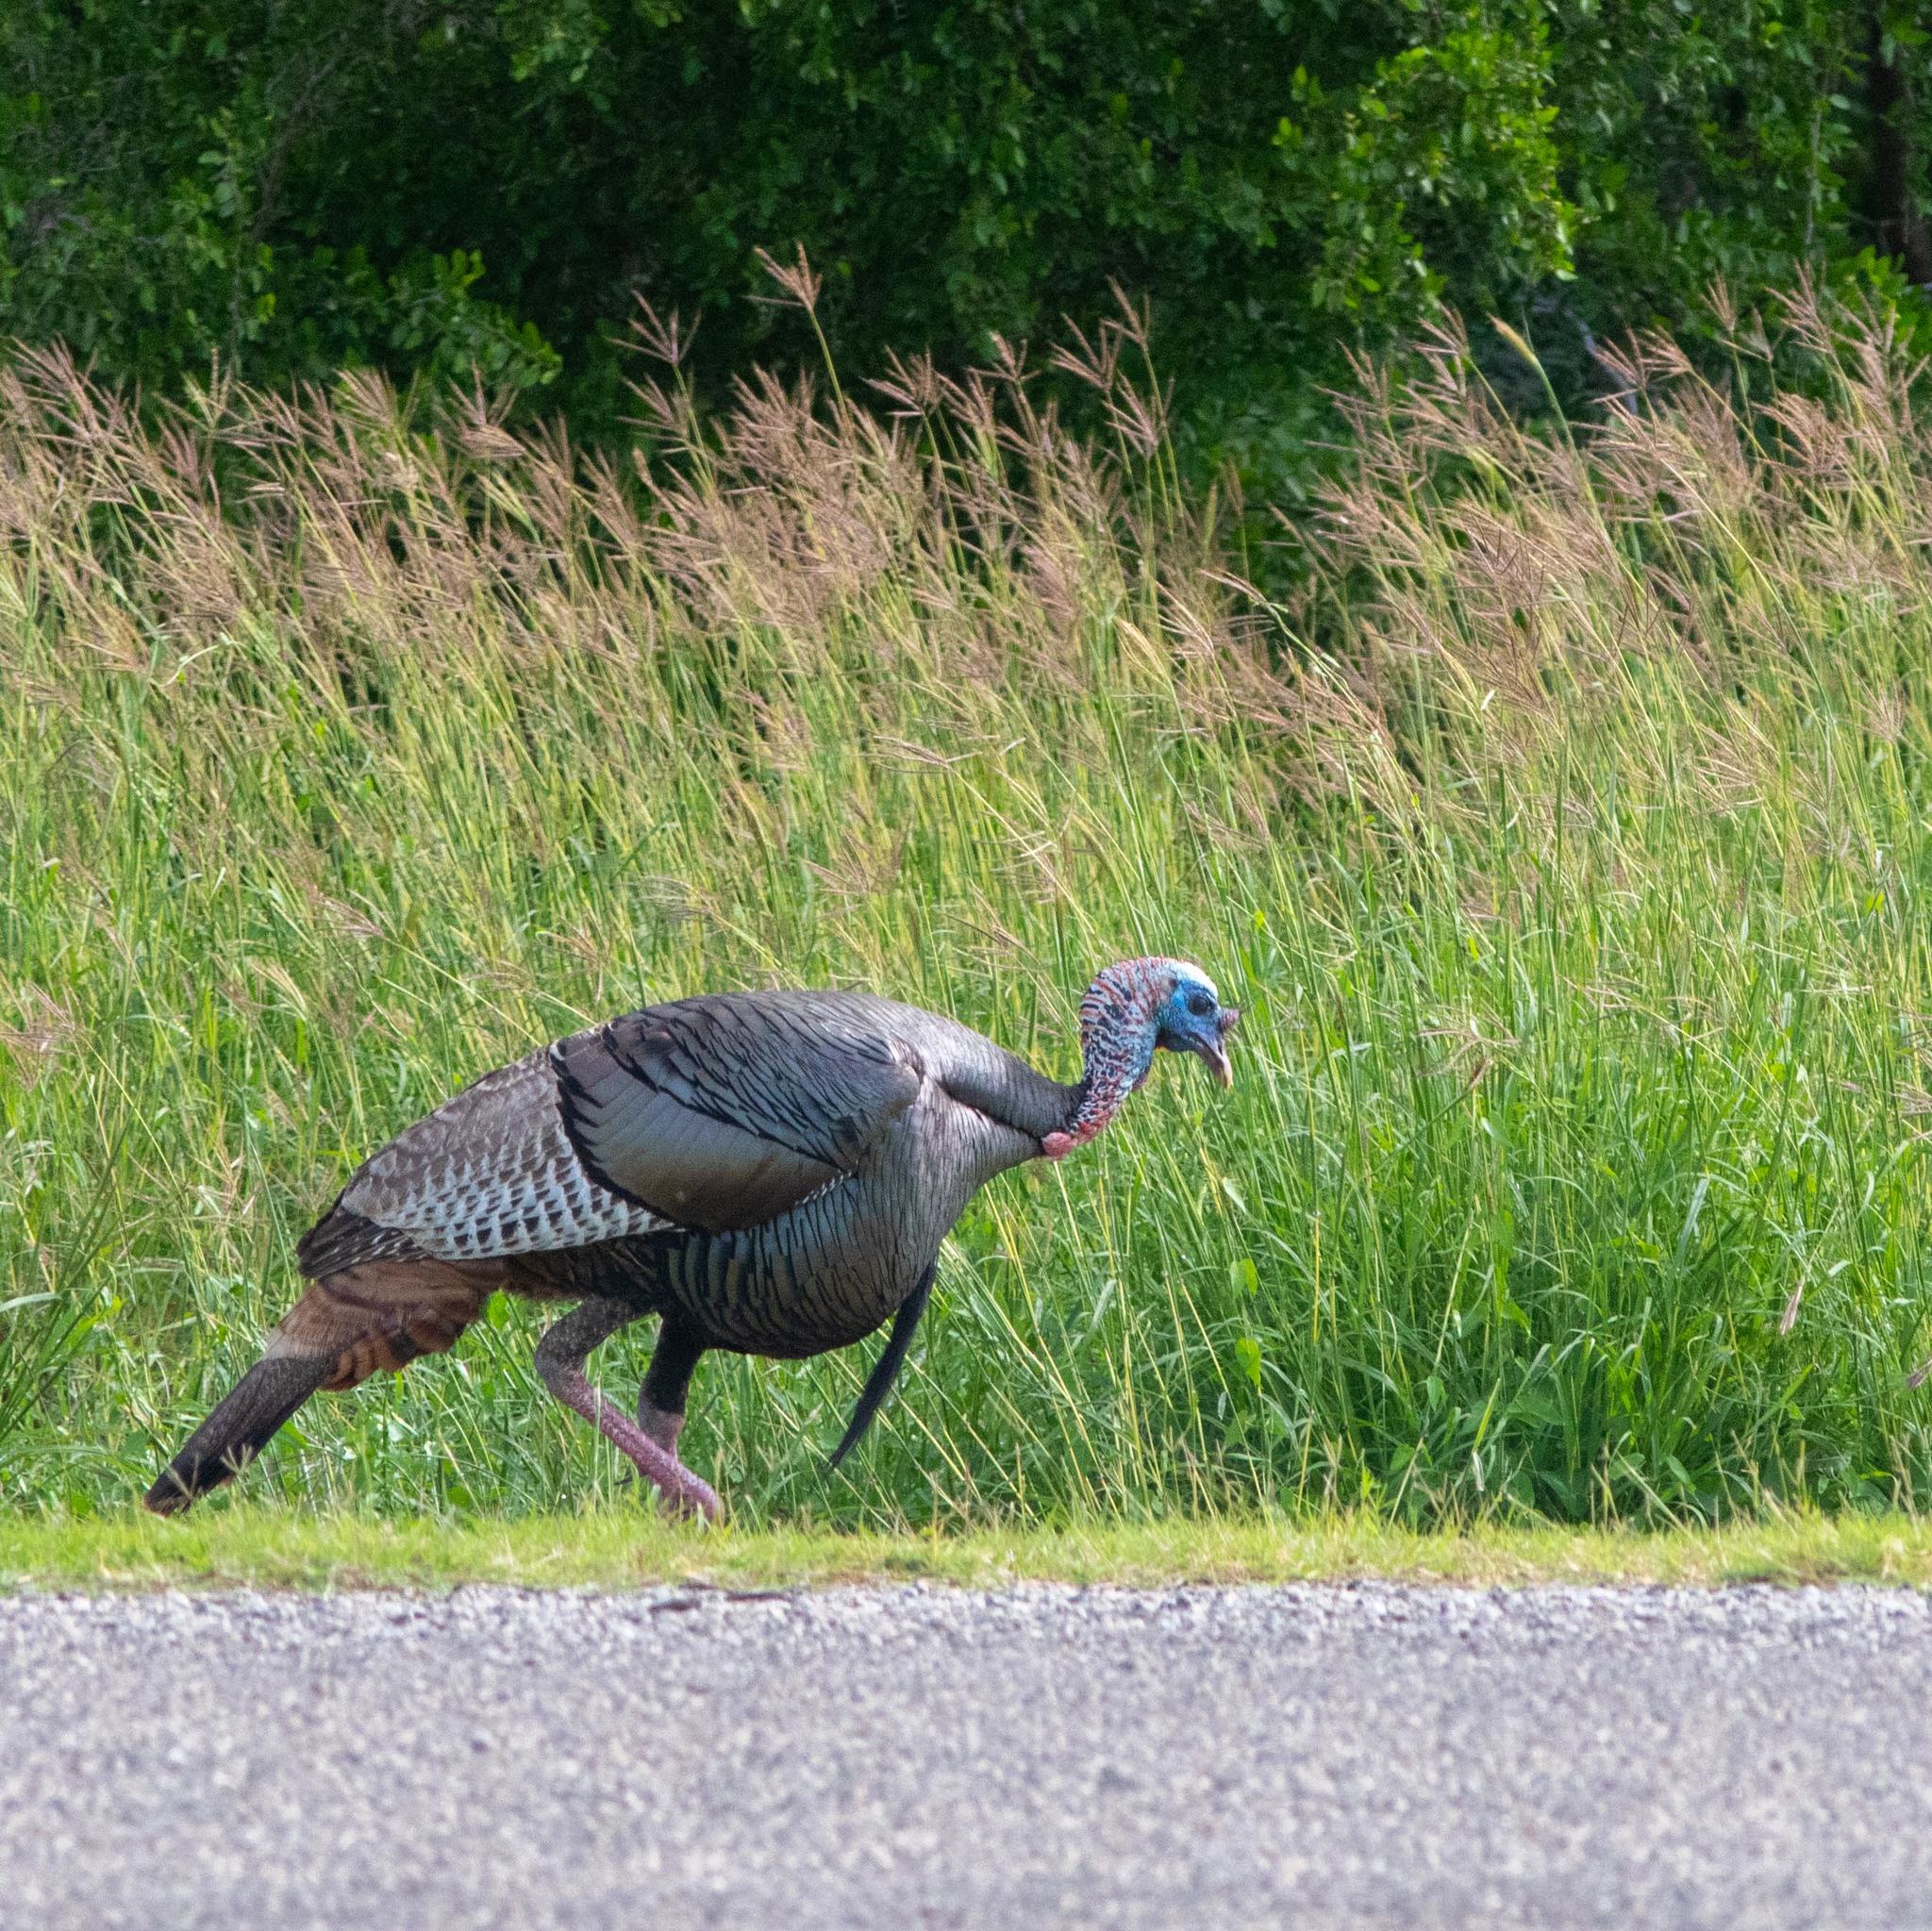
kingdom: Animalia
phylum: Chordata
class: Aves
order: Galliformes
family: Phasianidae
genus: Meleagris
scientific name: Meleagris gallopavo
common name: Wild turkey
